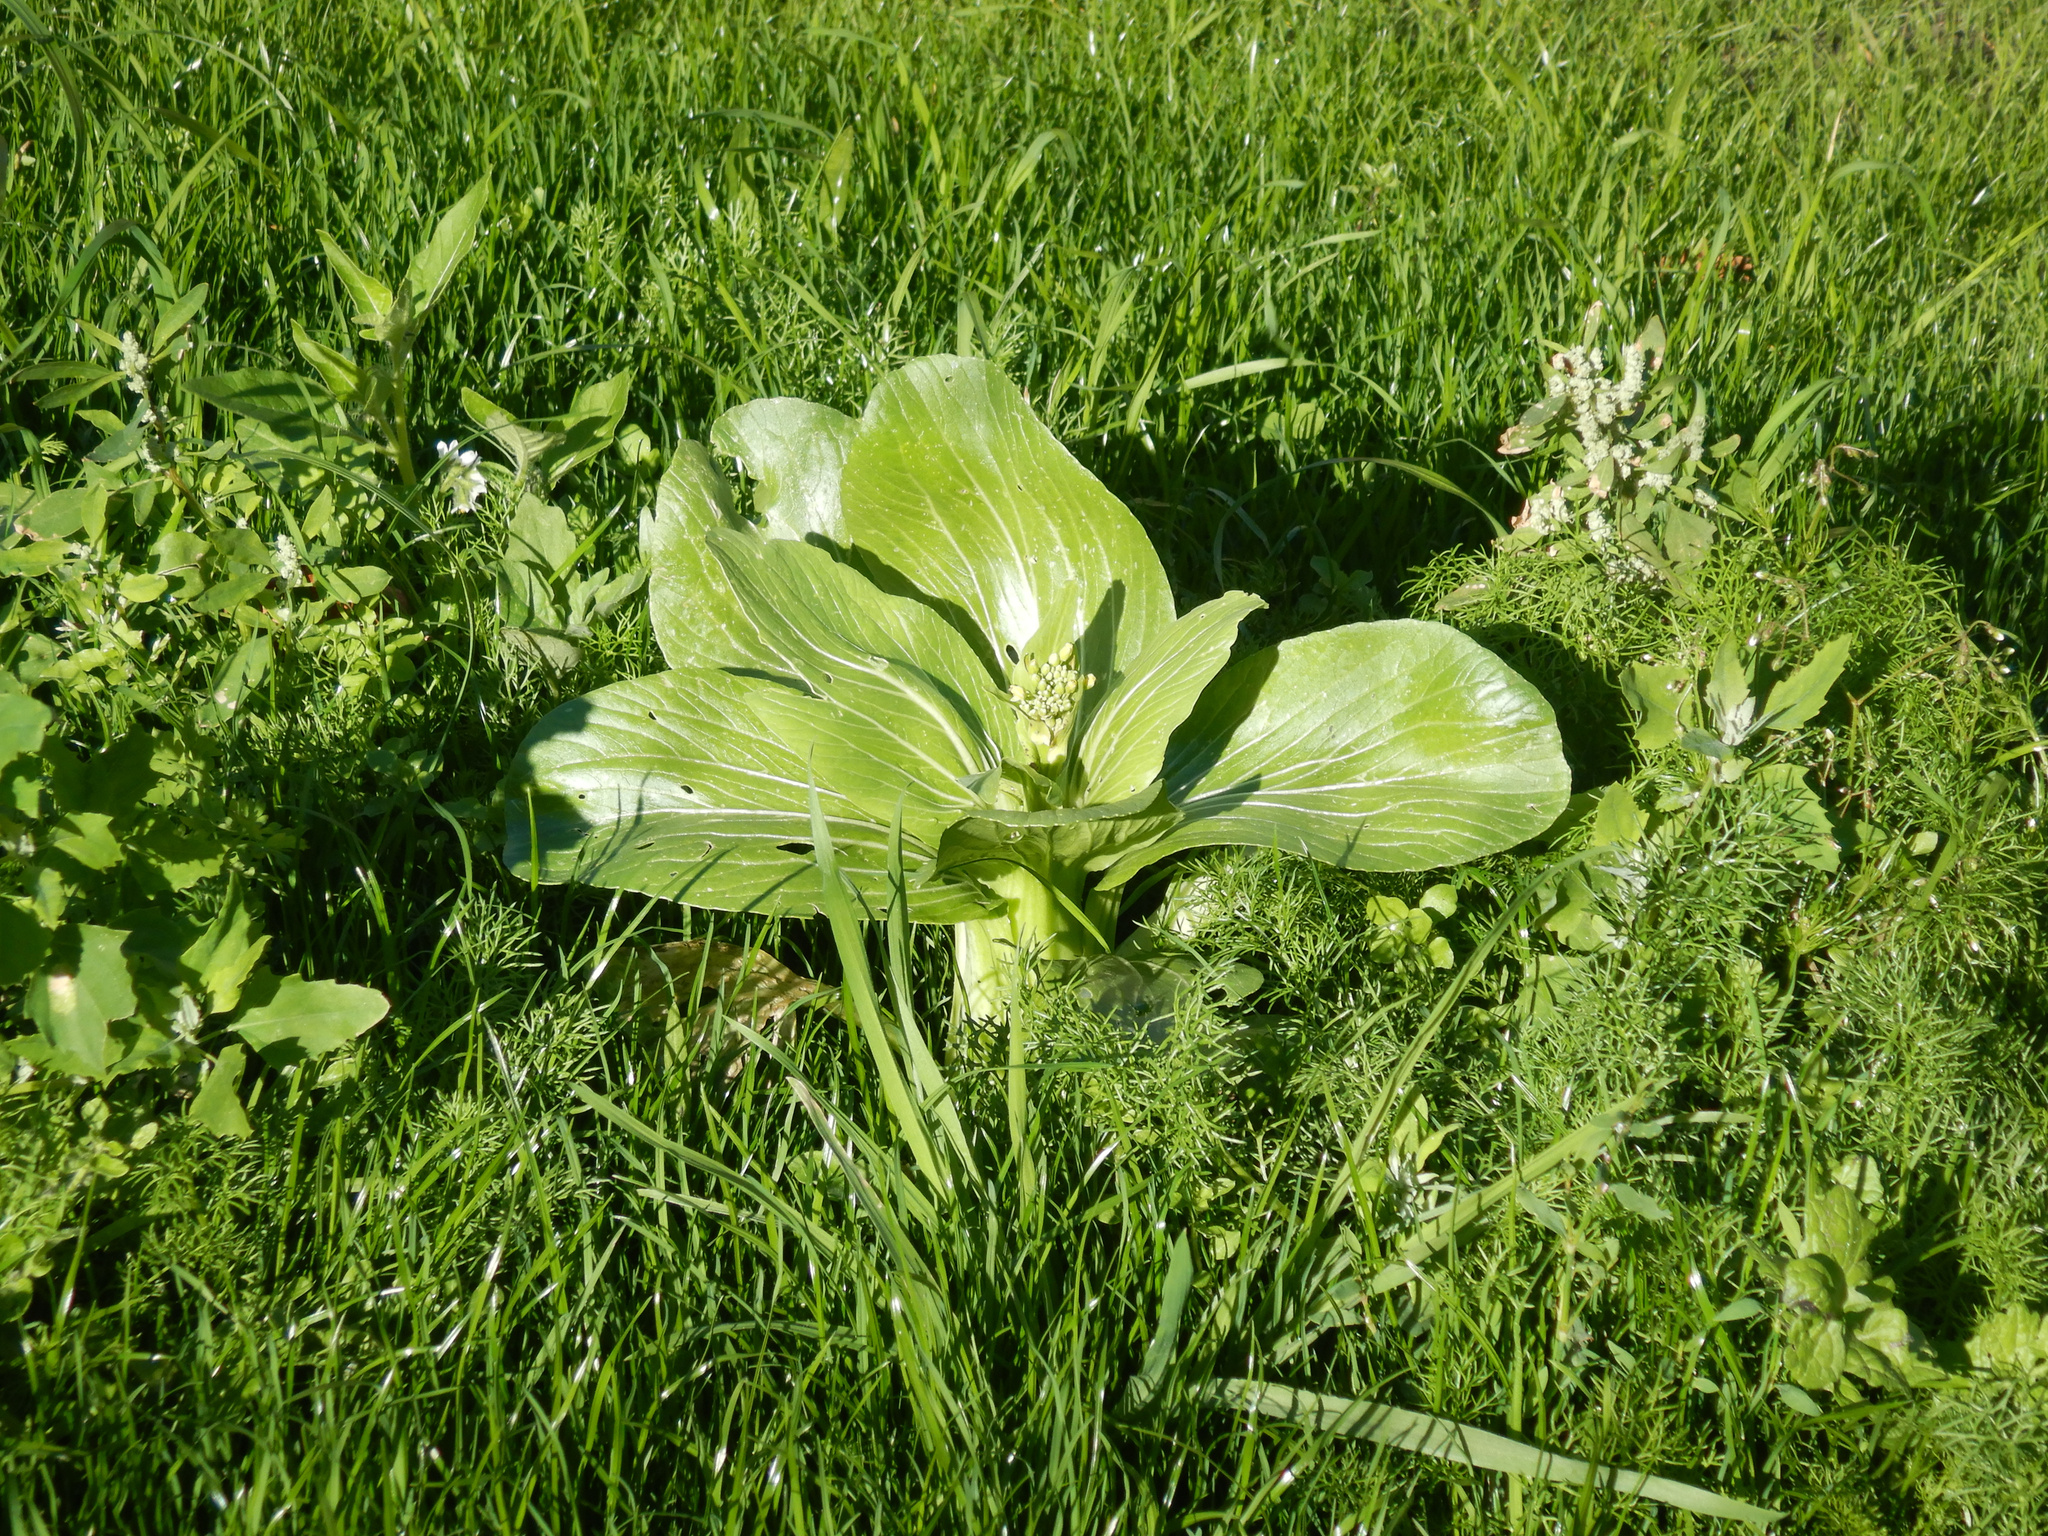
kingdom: Plantae
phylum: Tracheophyta
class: Magnoliopsida
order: Brassicales
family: Brassicaceae
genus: Brassica
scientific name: Brassica rapa
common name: Field mustard
